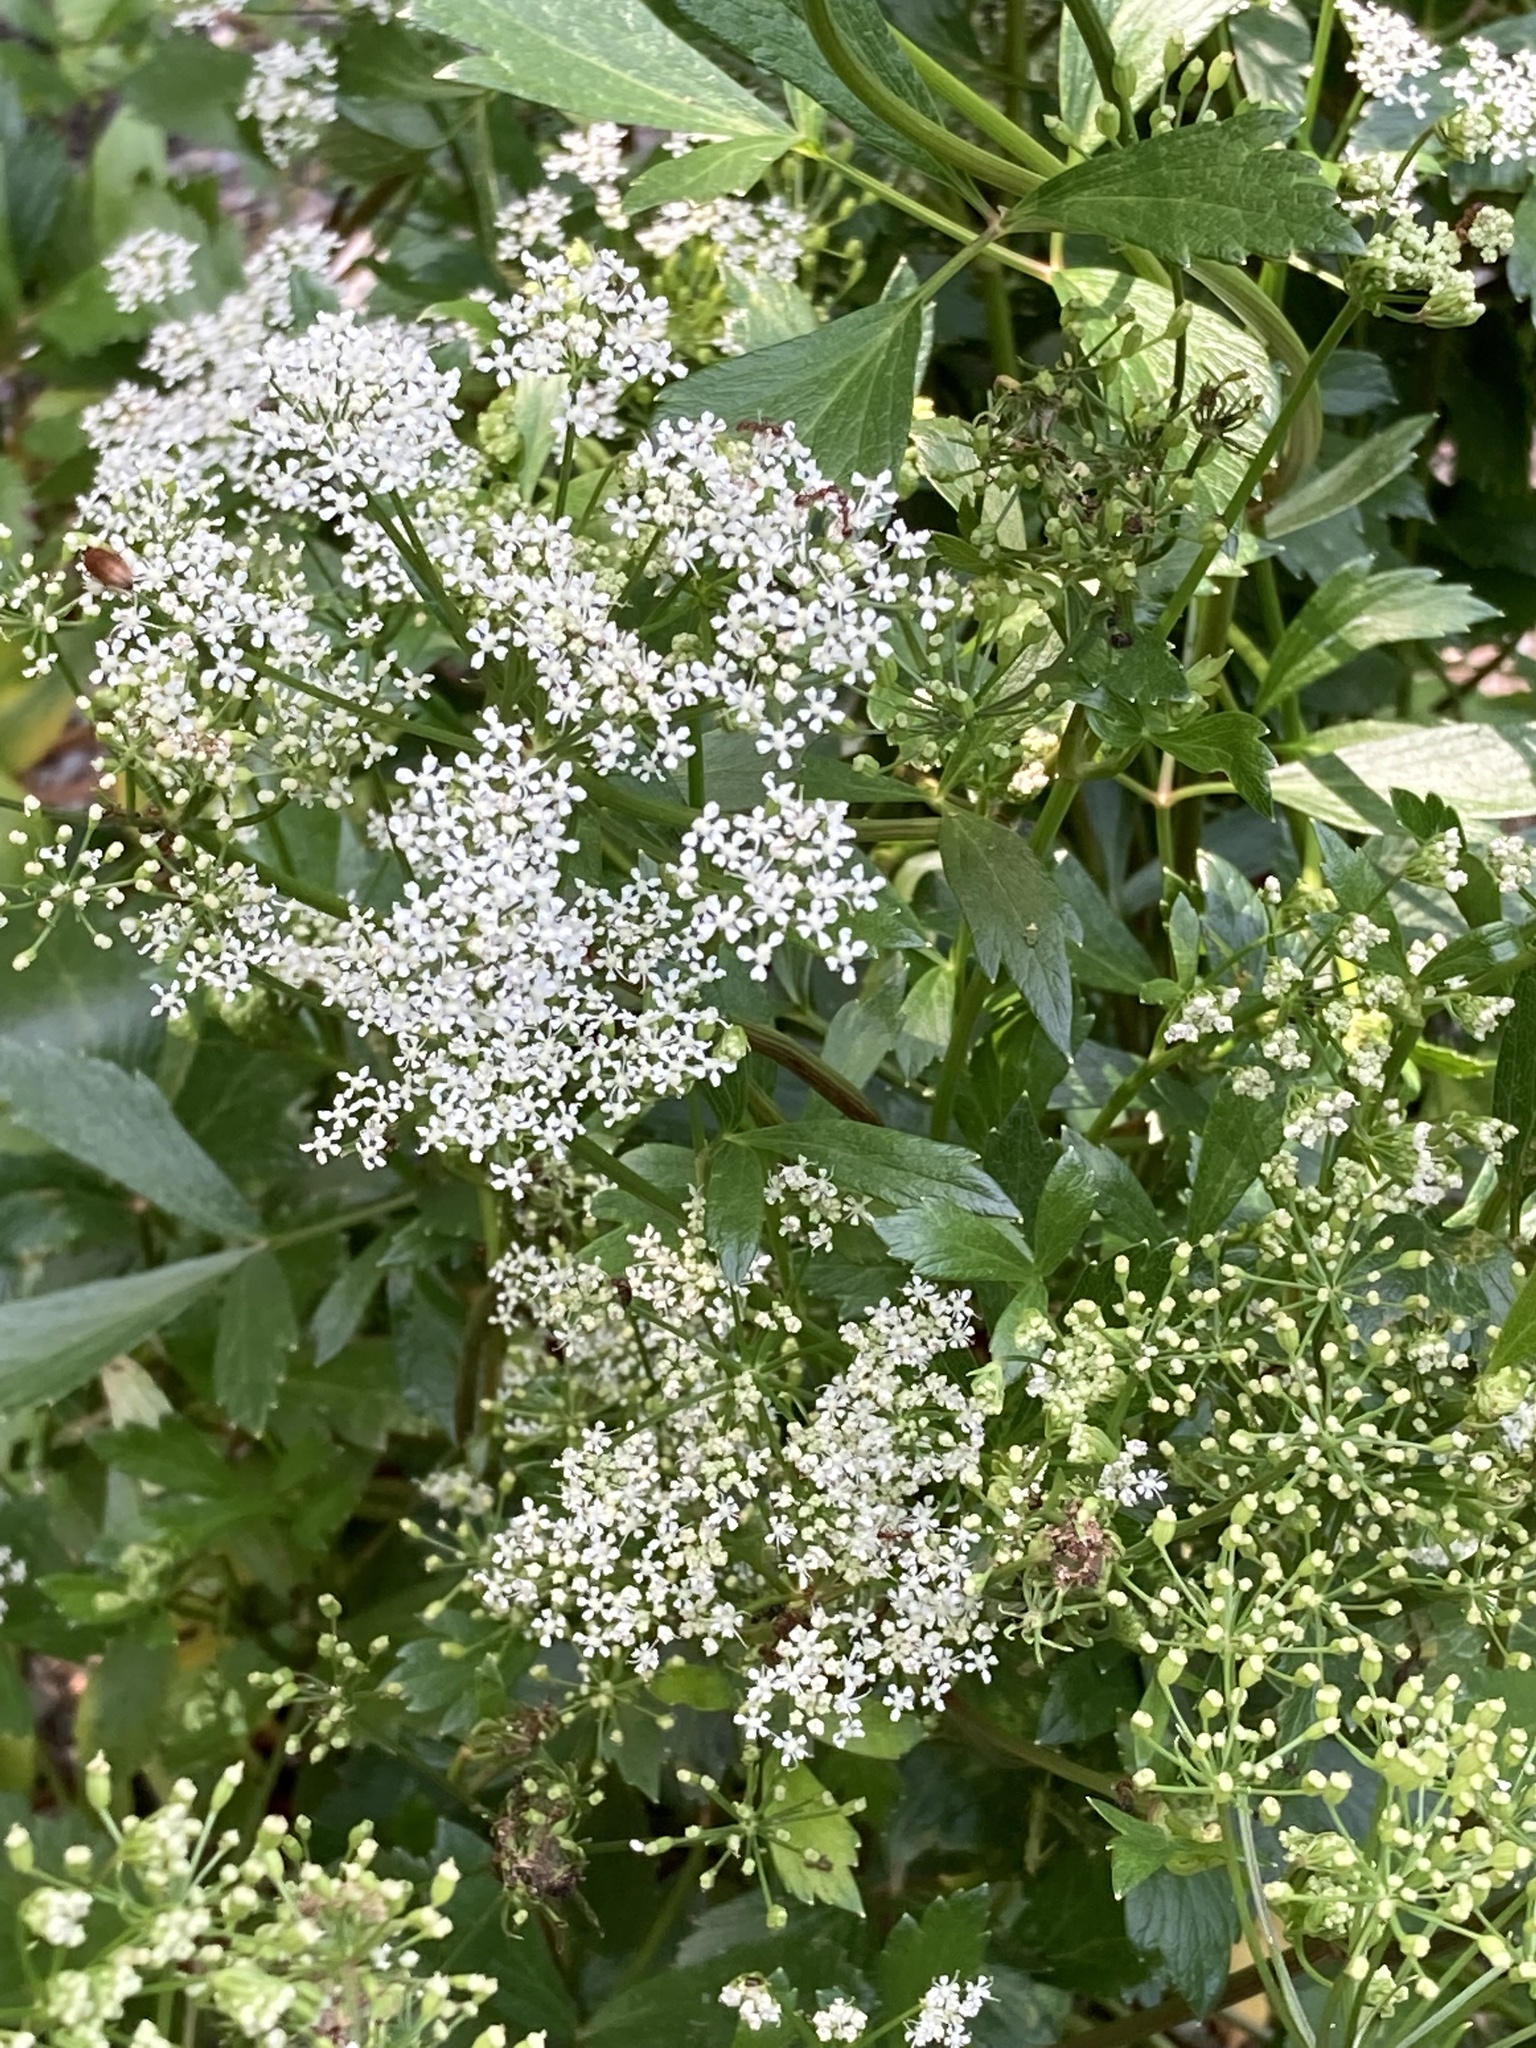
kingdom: Plantae
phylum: Tracheophyta
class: Magnoliopsida
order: Apiales
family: Apiaceae
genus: Ligusticum
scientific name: Ligusticum scothicum
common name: Beach lovage
